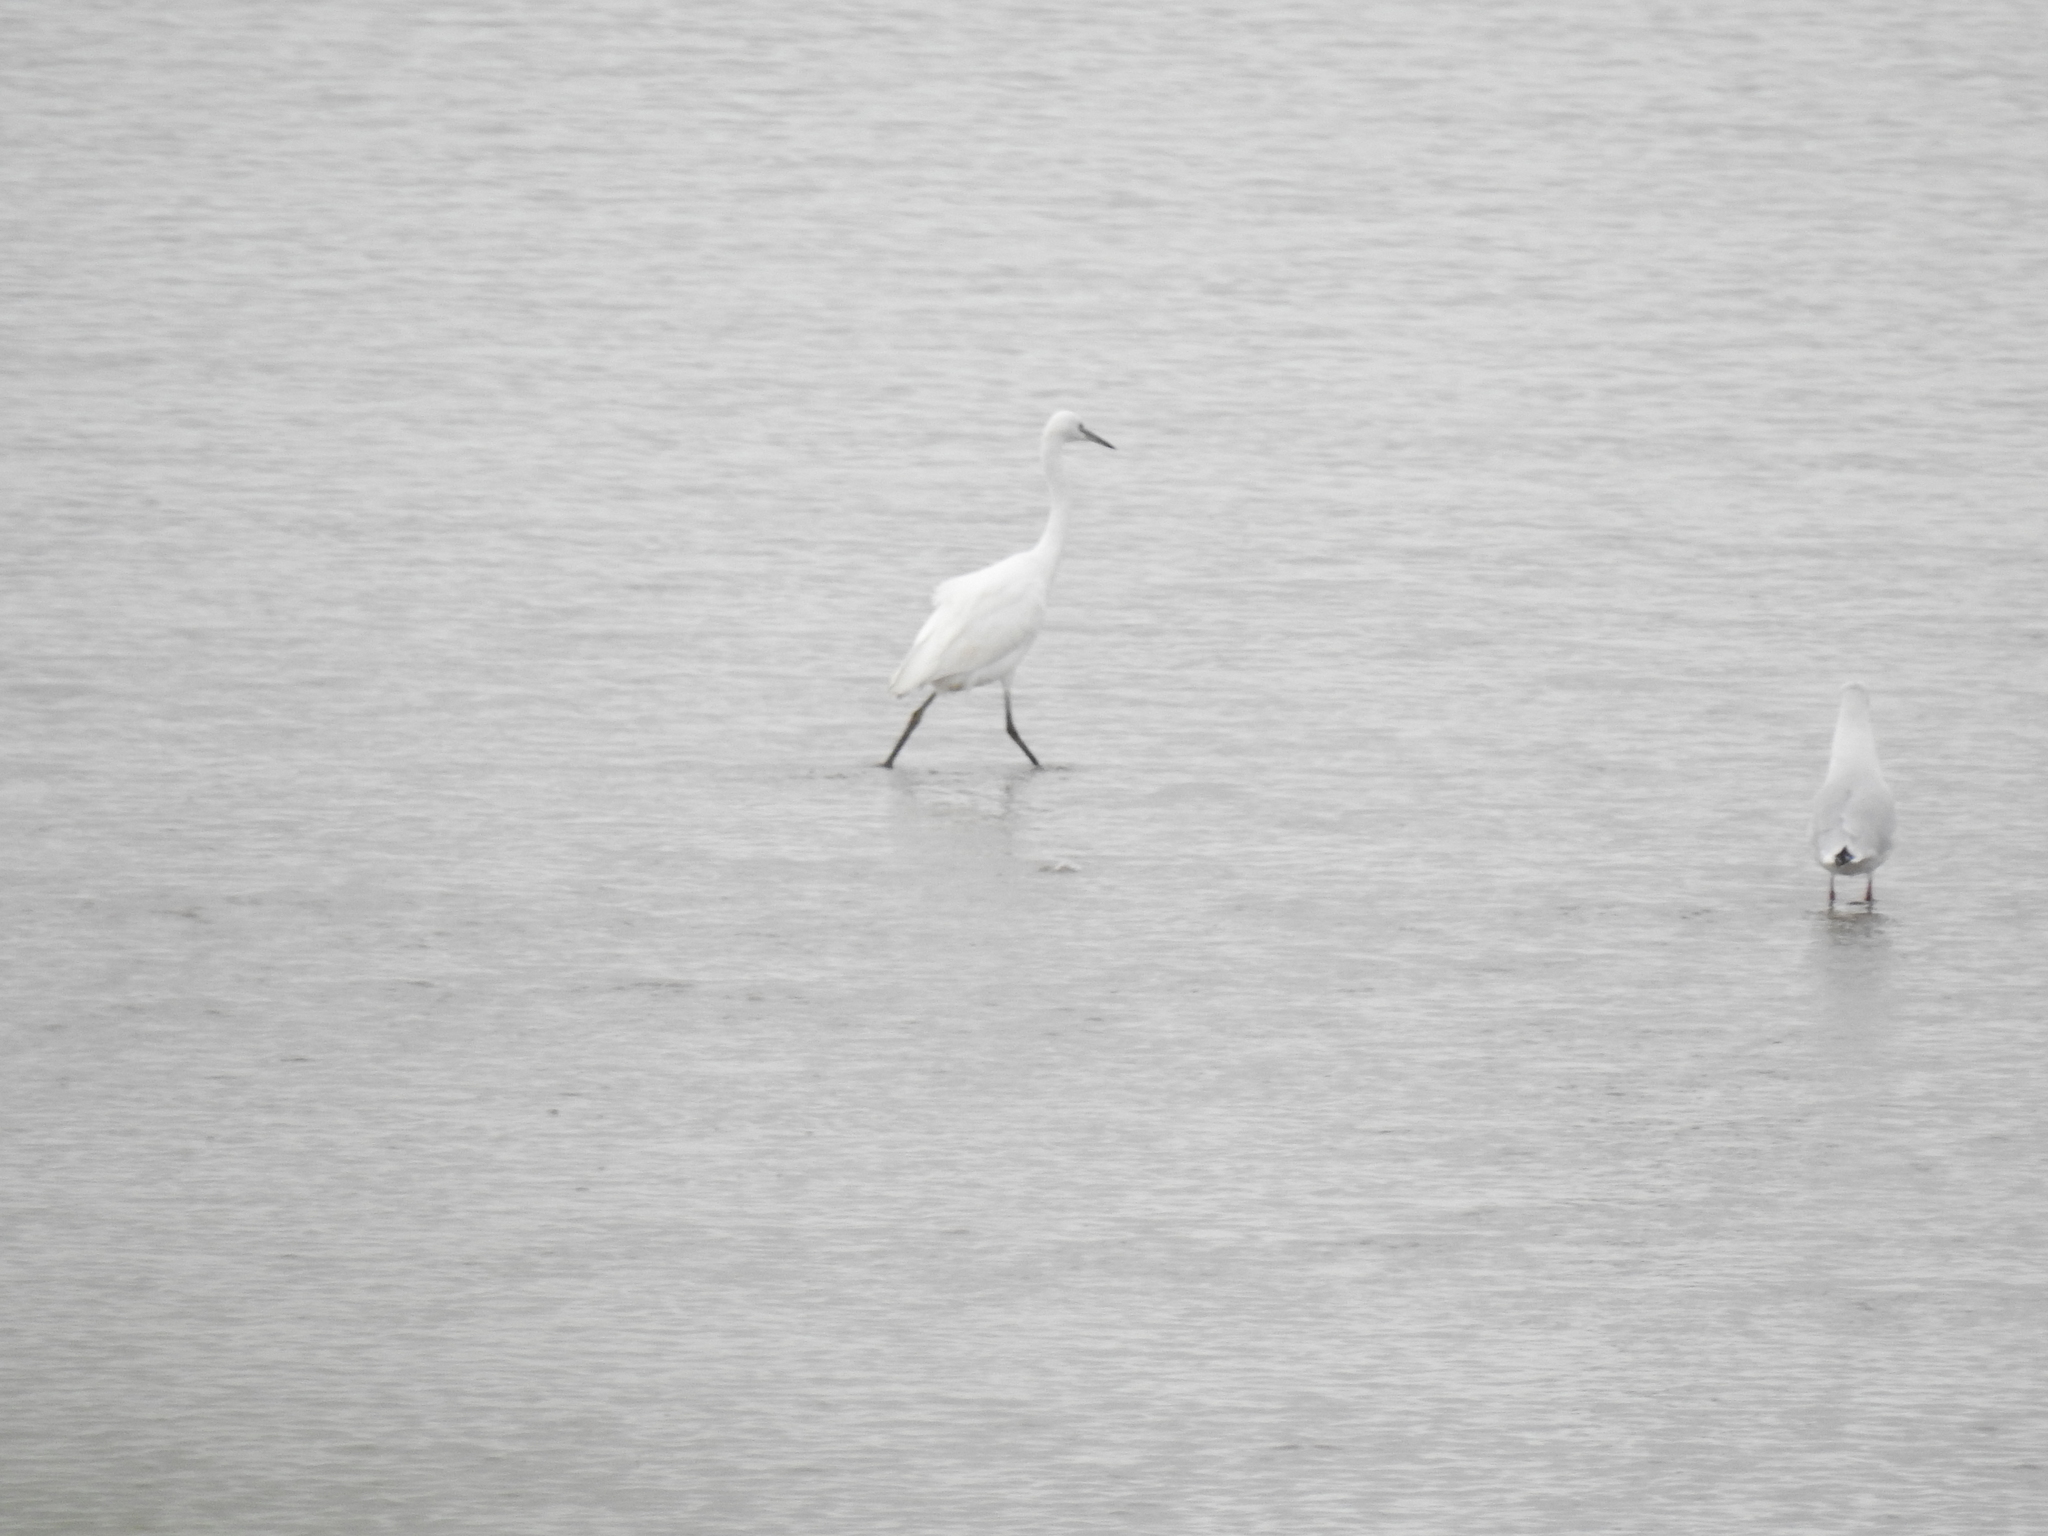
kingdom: Animalia
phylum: Chordata
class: Aves
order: Pelecaniformes
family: Ardeidae
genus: Egretta
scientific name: Egretta garzetta
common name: Little egret
